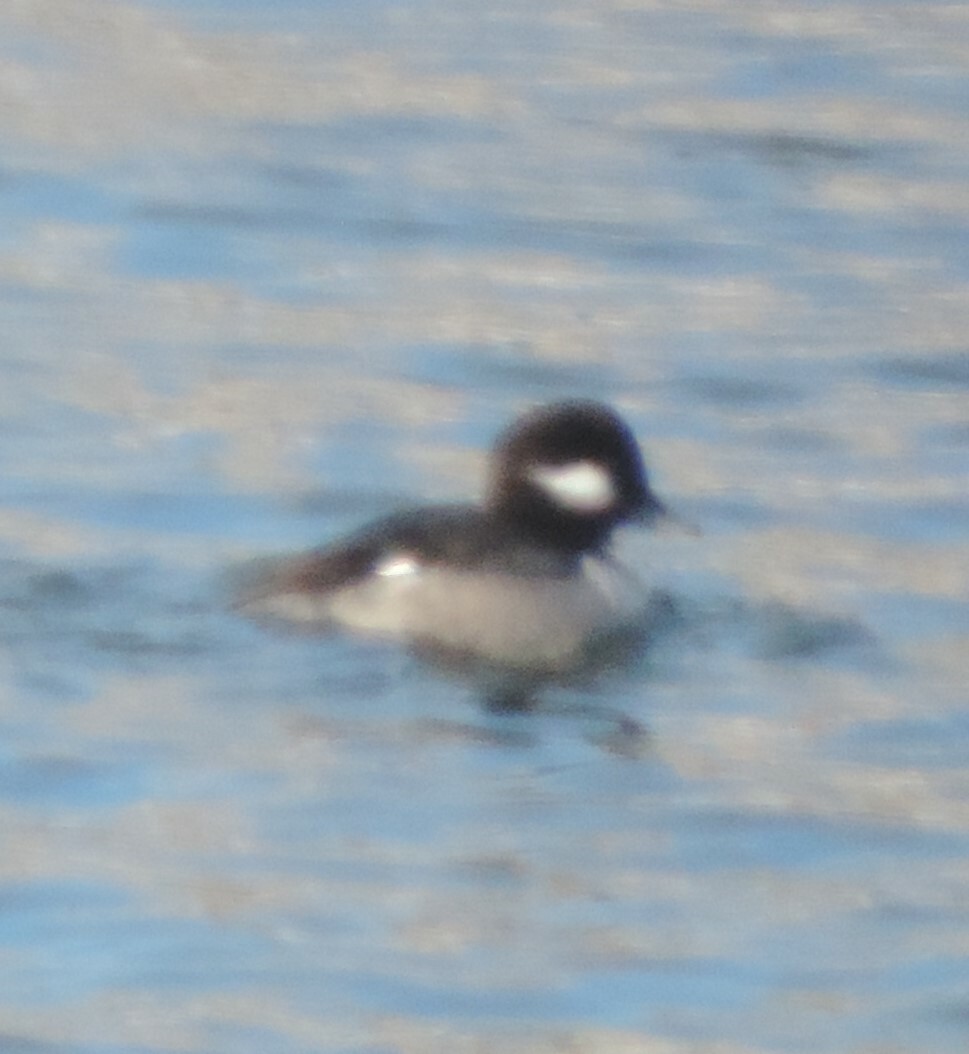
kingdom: Animalia
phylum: Chordata
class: Aves
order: Anseriformes
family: Anatidae
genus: Bucephala
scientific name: Bucephala albeola
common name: Bufflehead
